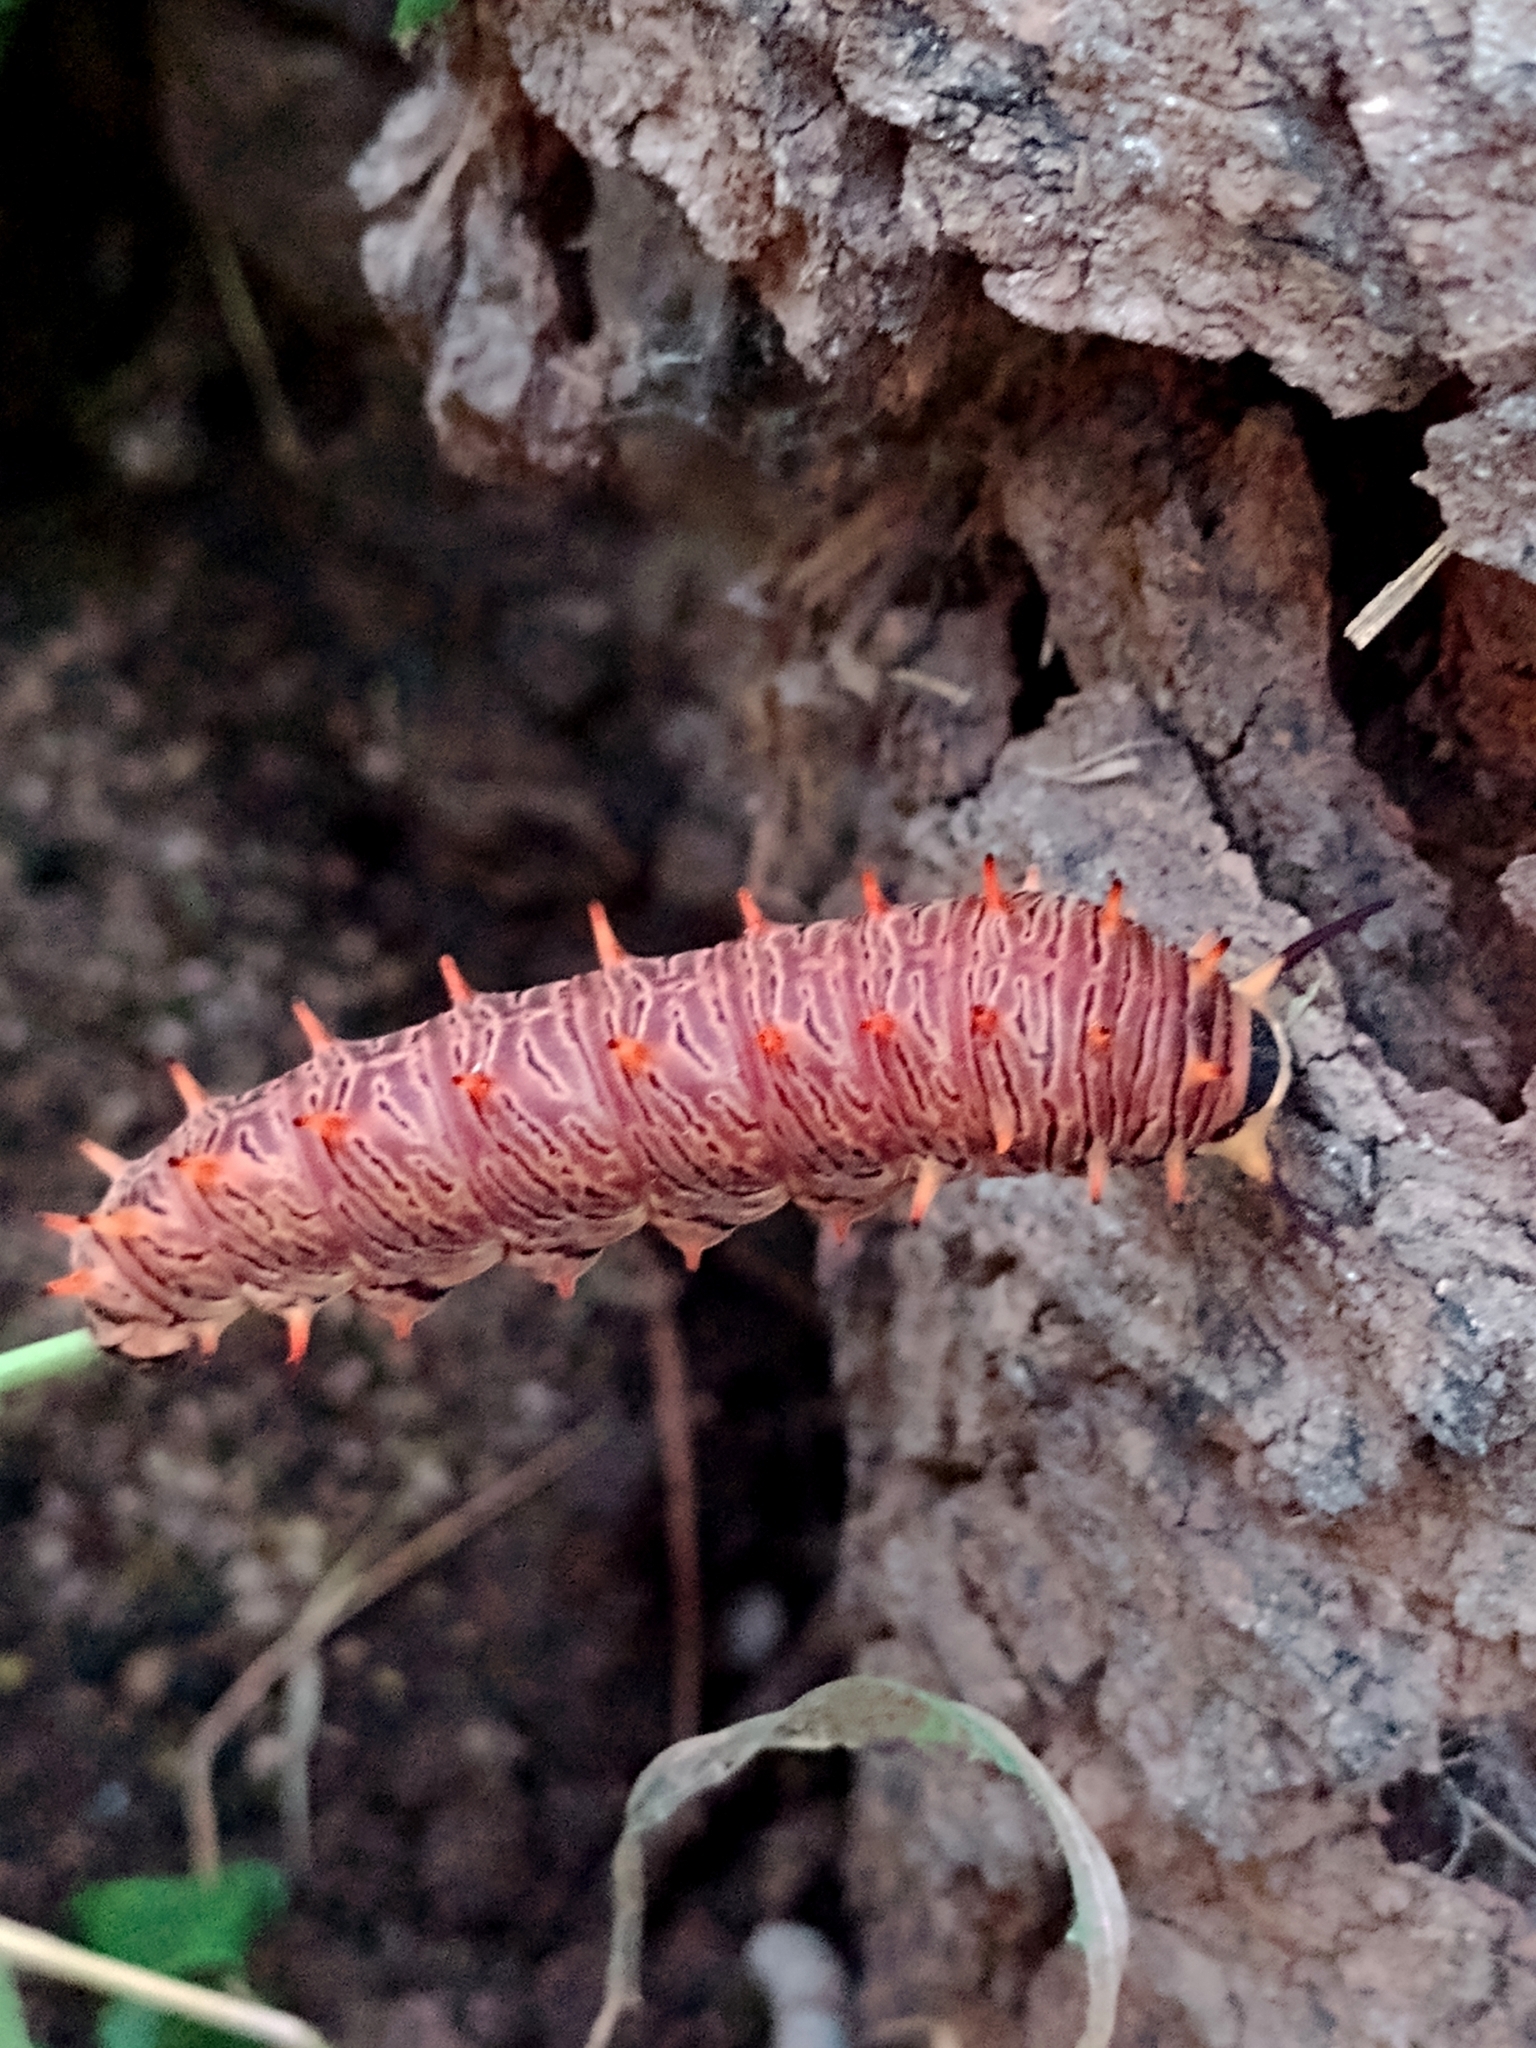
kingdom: Animalia
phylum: Arthropoda
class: Insecta
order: Lepidoptera
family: Papilionidae
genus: Battus
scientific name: Battus polydamas
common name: Polydamas swallowtail
